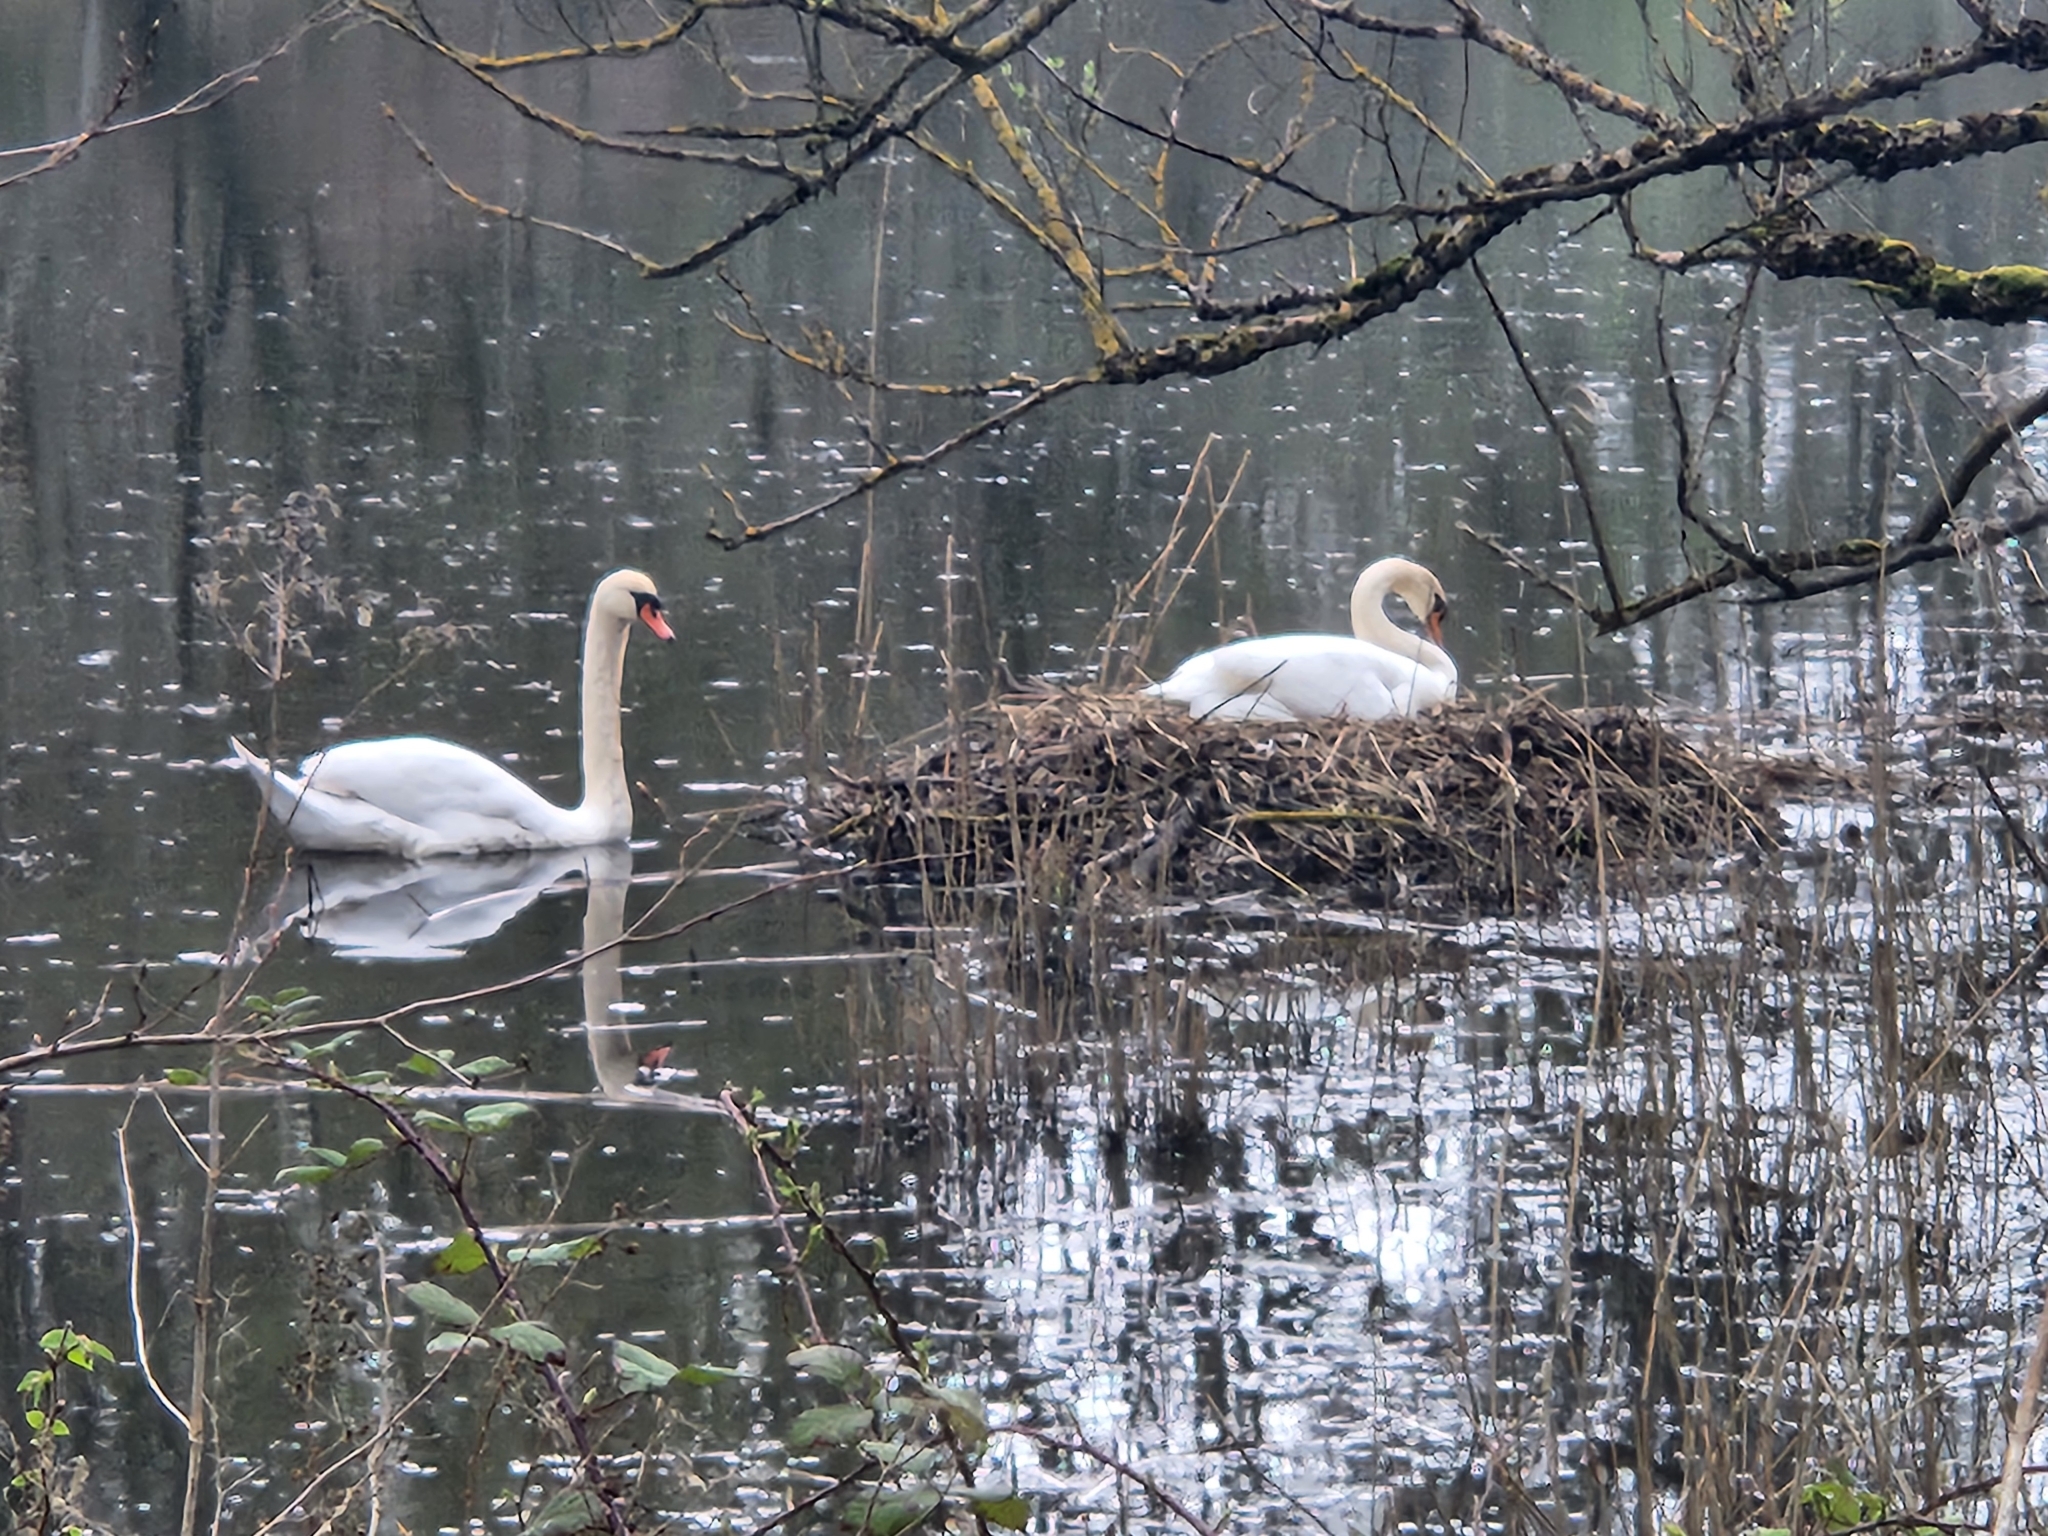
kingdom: Animalia
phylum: Chordata
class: Aves
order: Anseriformes
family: Anatidae
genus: Cygnus
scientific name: Cygnus olor
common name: Mute swan
